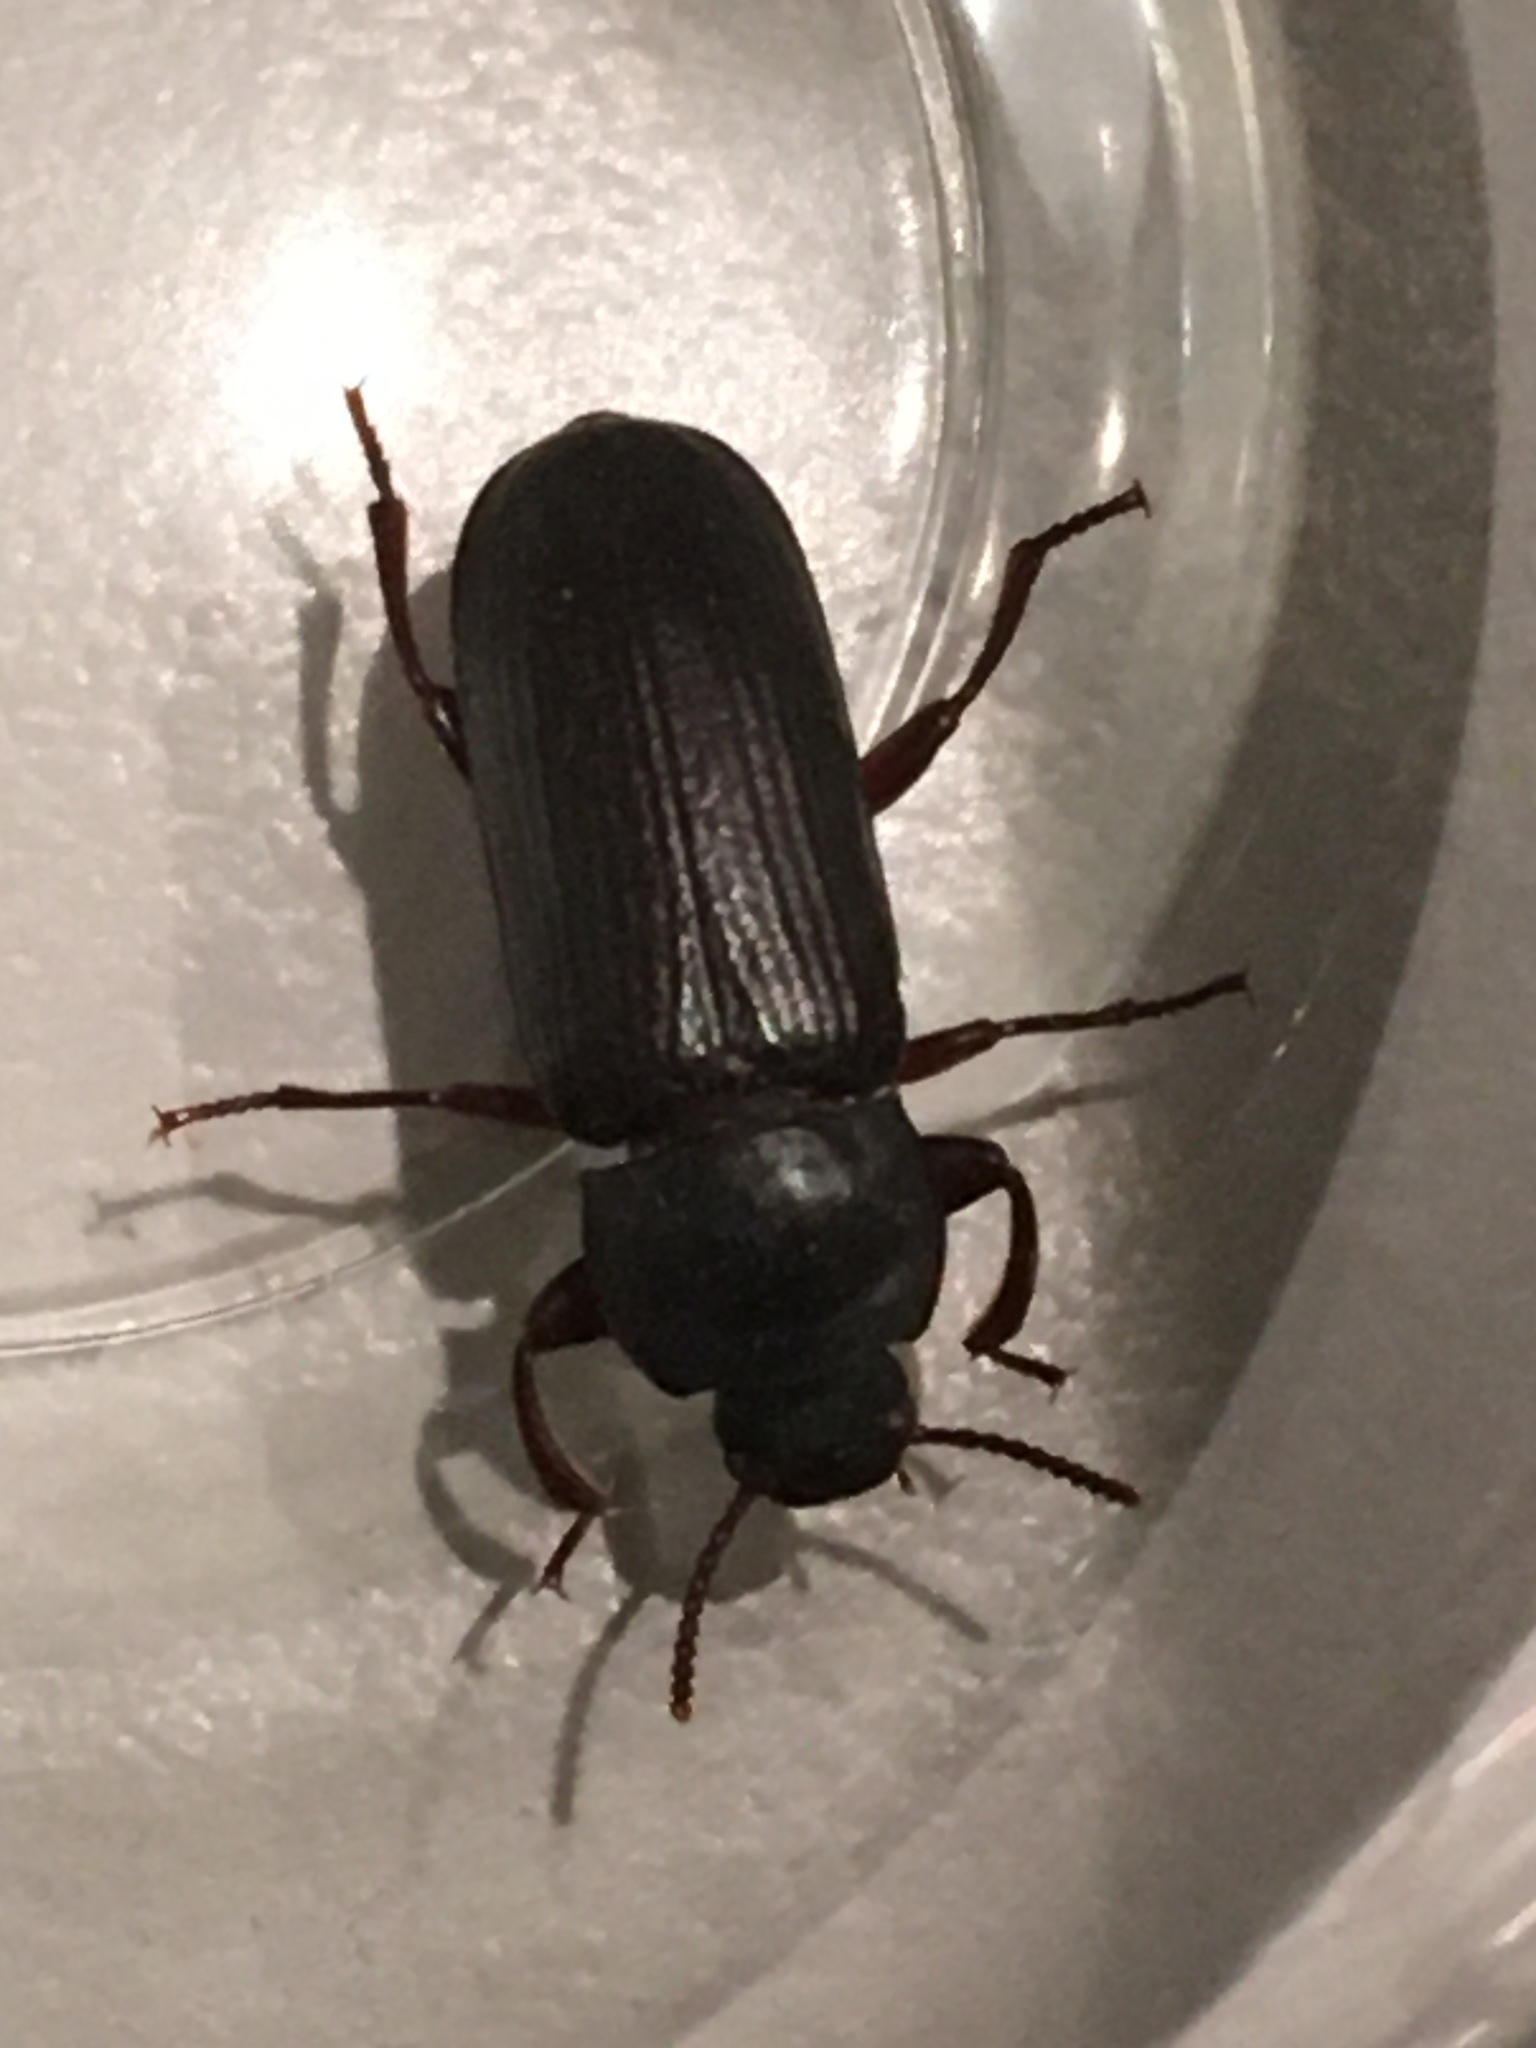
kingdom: Animalia
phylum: Arthropoda
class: Insecta
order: Coleoptera
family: Tenebrionidae
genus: Tenebrio
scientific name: Tenebrio molitor
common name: Hardback beetle
